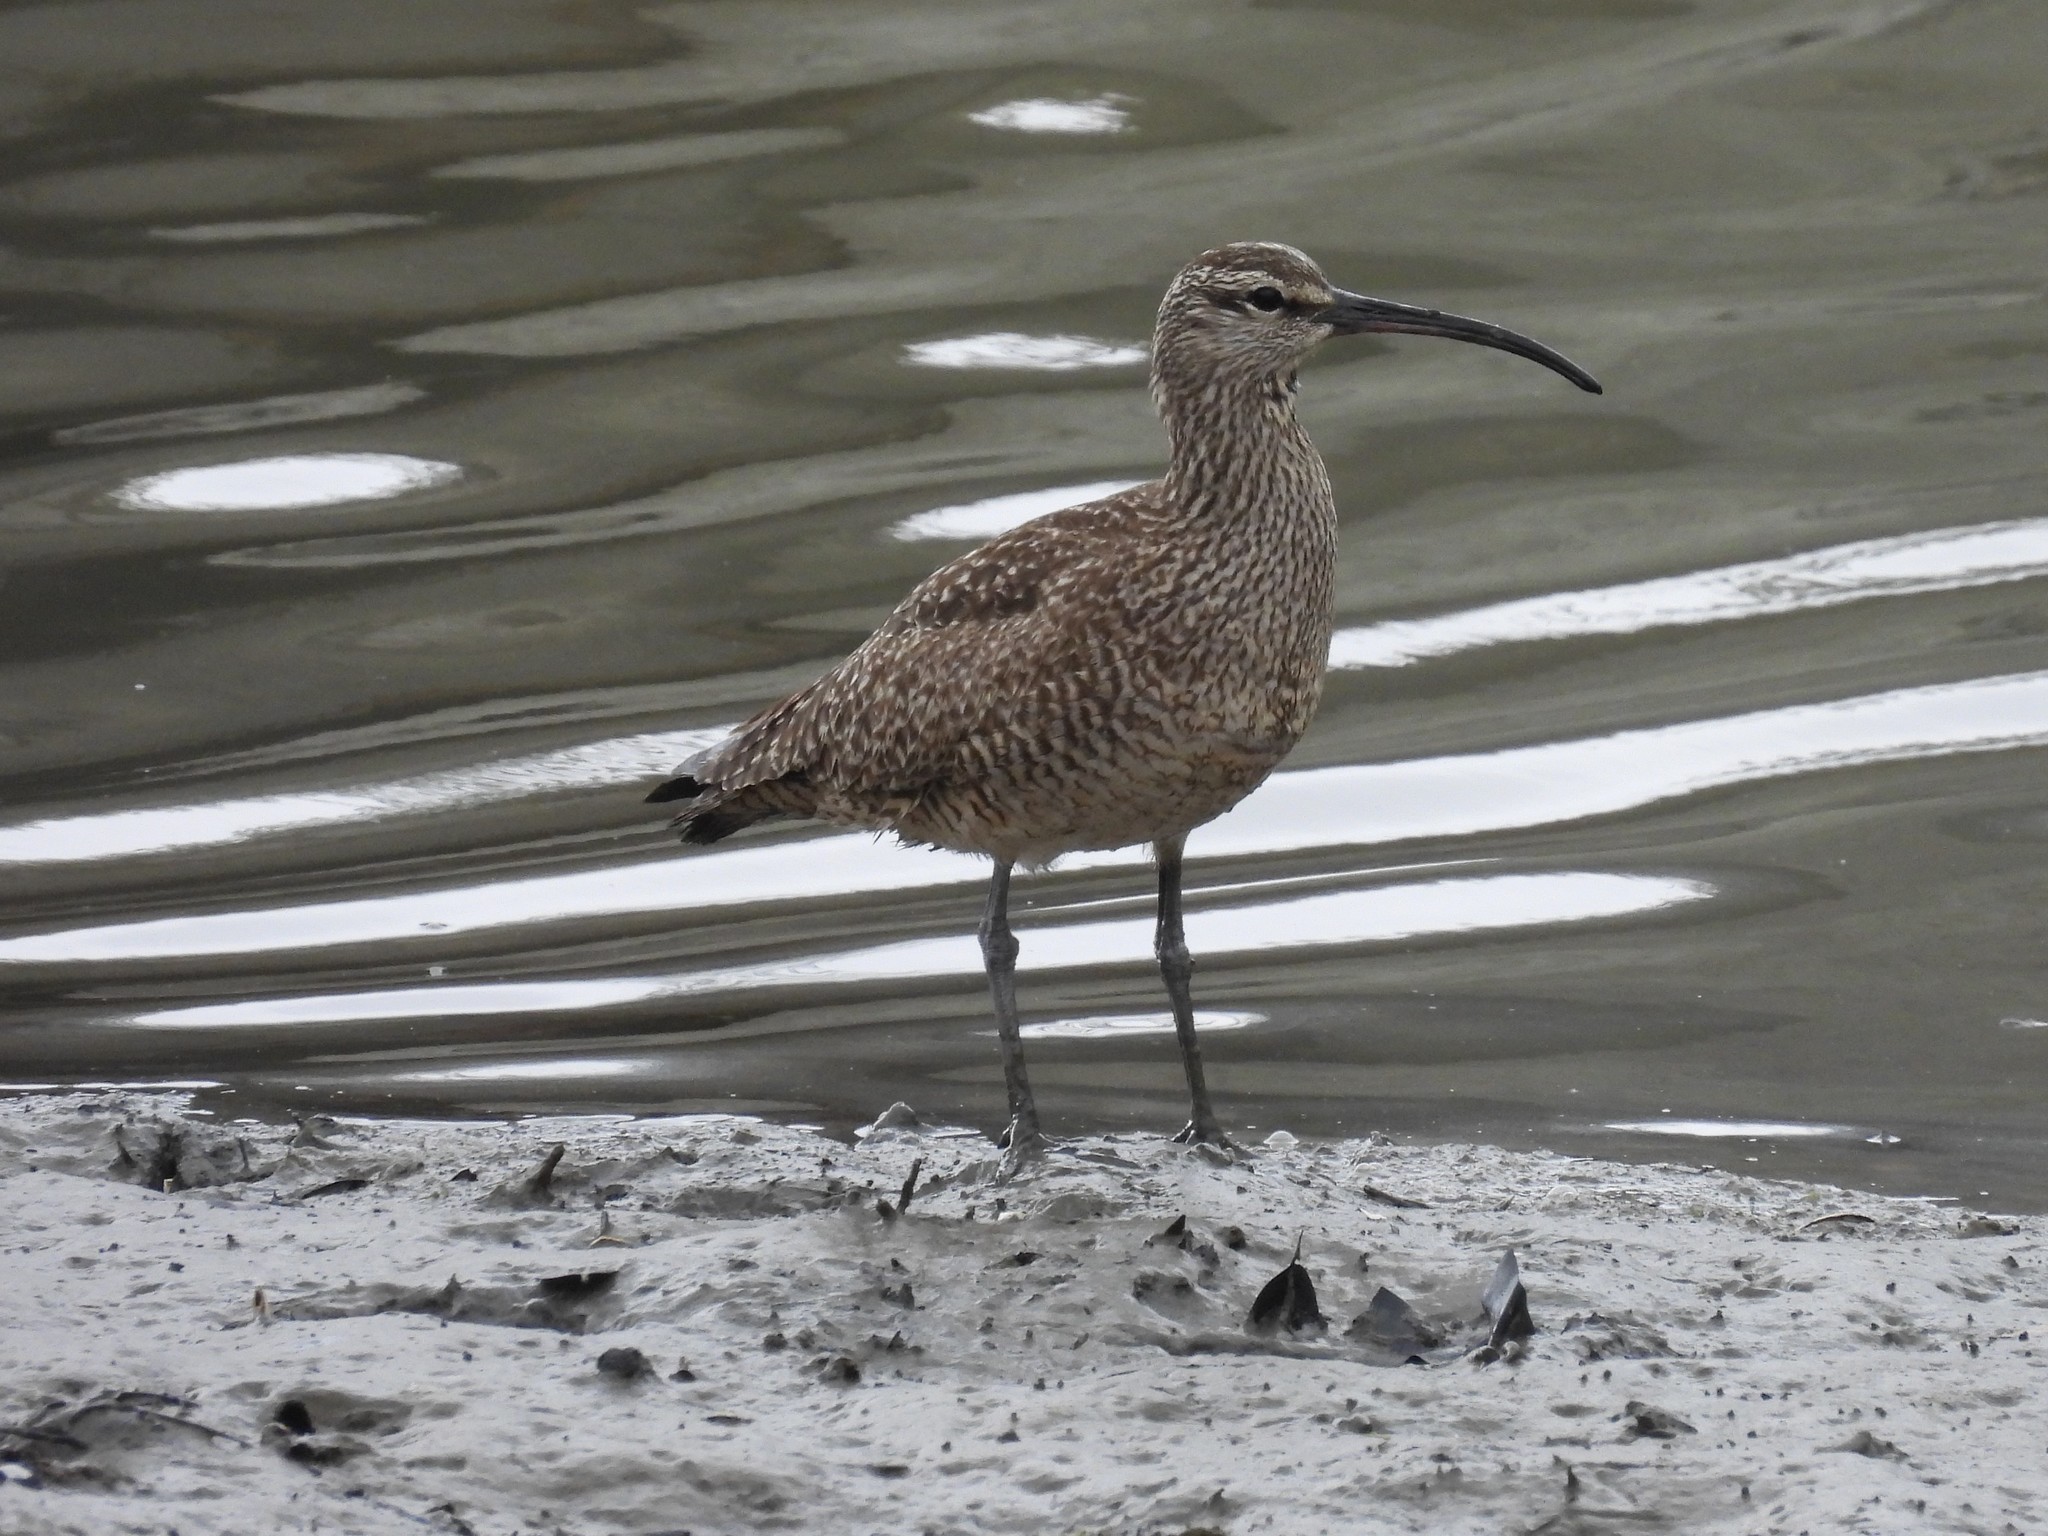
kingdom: Animalia
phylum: Chordata
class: Aves
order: Charadriiformes
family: Scolopacidae
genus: Numenius
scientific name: Numenius phaeopus
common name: Whimbrel
